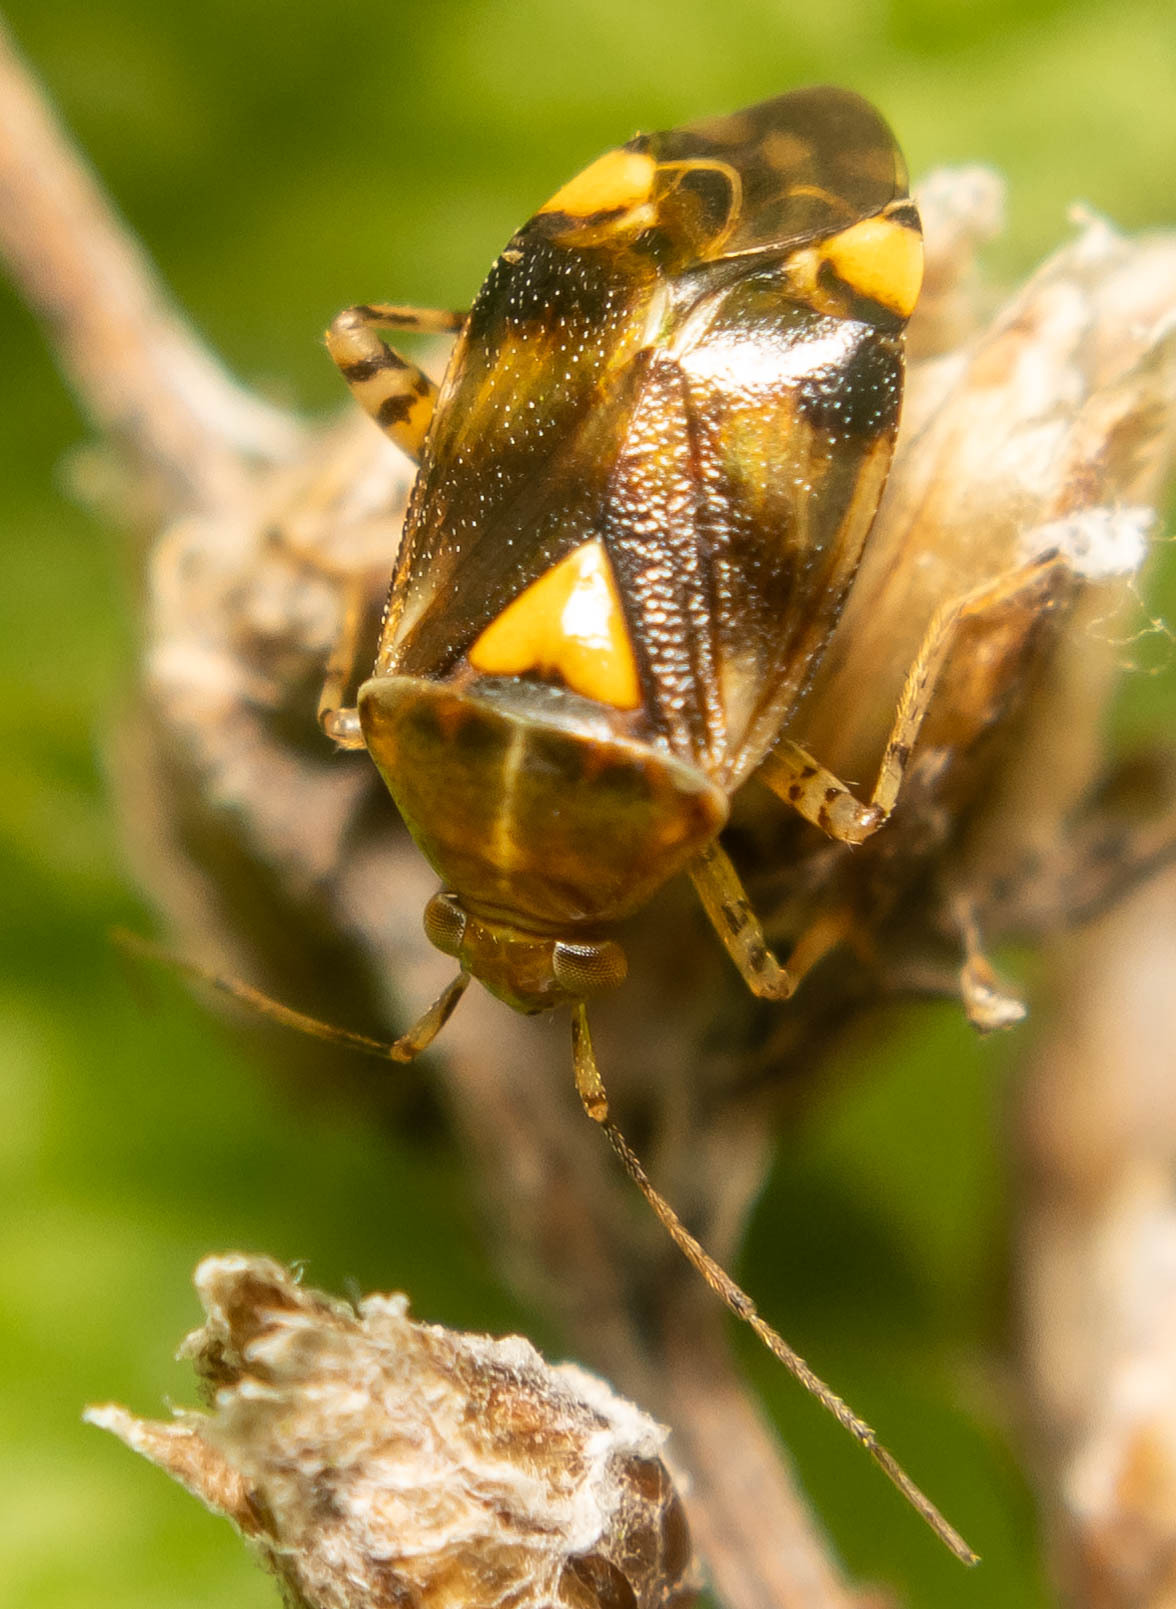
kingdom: Animalia
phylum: Arthropoda
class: Insecta
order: Hemiptera
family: Miridae
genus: Liocoris
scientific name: Liocoris tripustulatus
